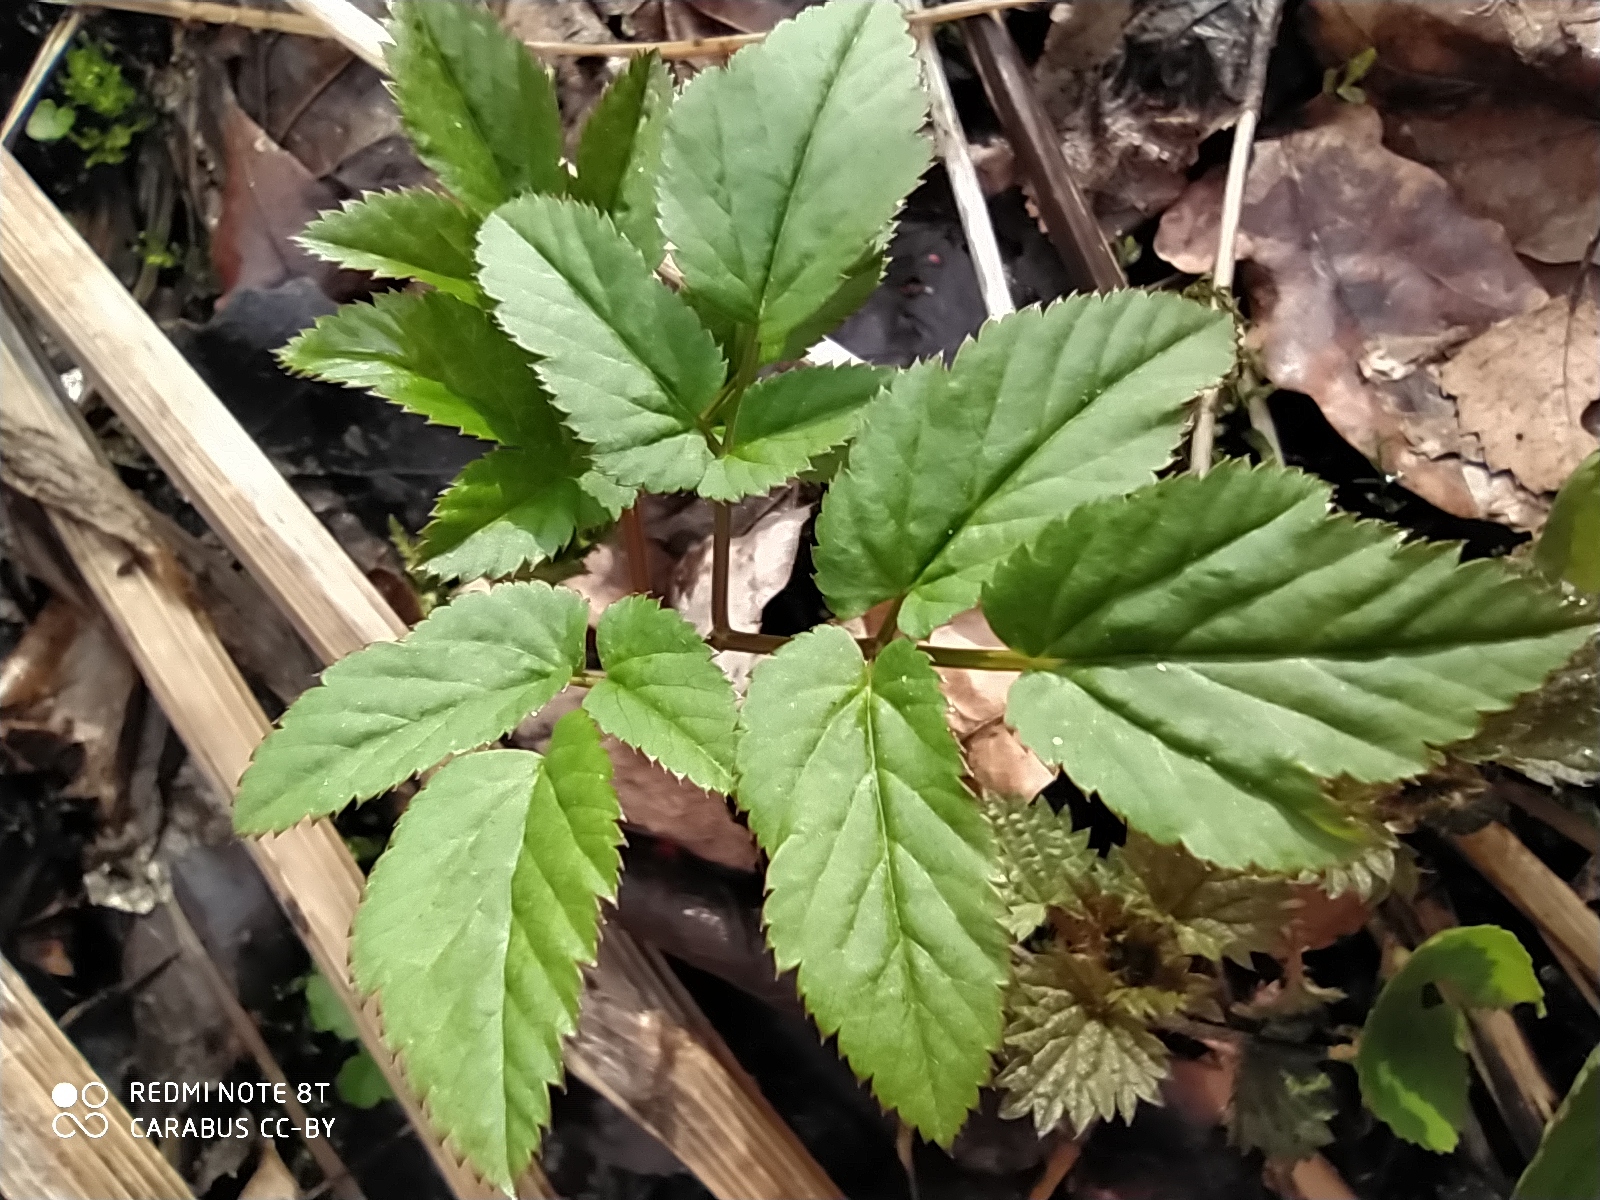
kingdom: Plantae
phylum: Tracheophyta
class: Magnoliopsida
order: Apiales
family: Apiaceae
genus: Aegopodium
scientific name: Aegopodium podagraria
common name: Ground-elder
